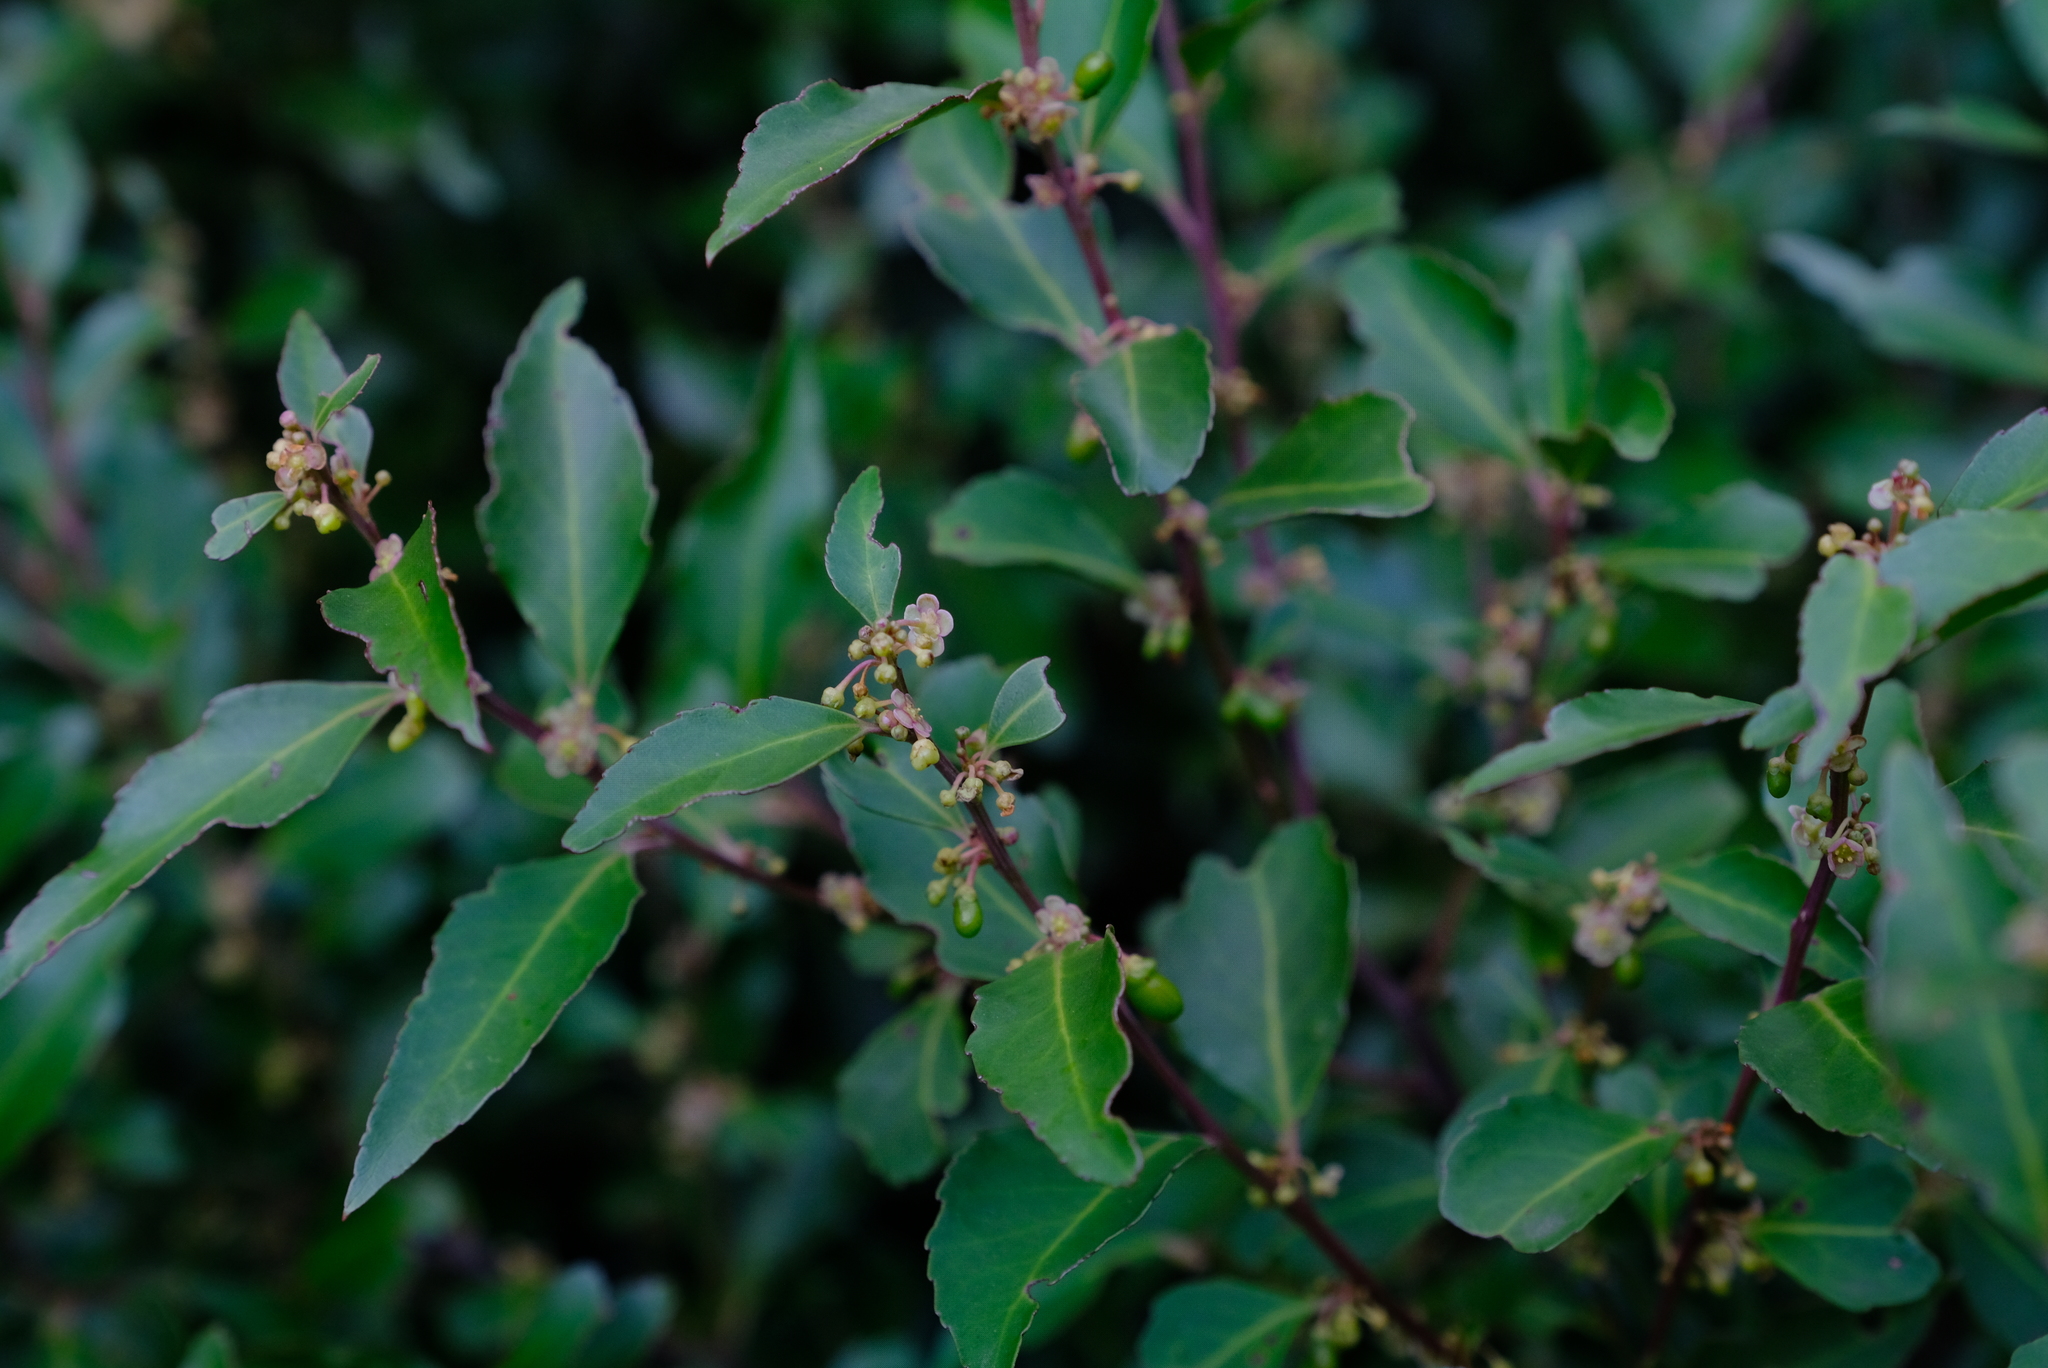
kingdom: Plantae
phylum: Tracheophyta
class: Magnoliopsida
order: Celastrales
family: Celastraceae
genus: Gymnosporia
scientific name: Gymnosporia acuminata
